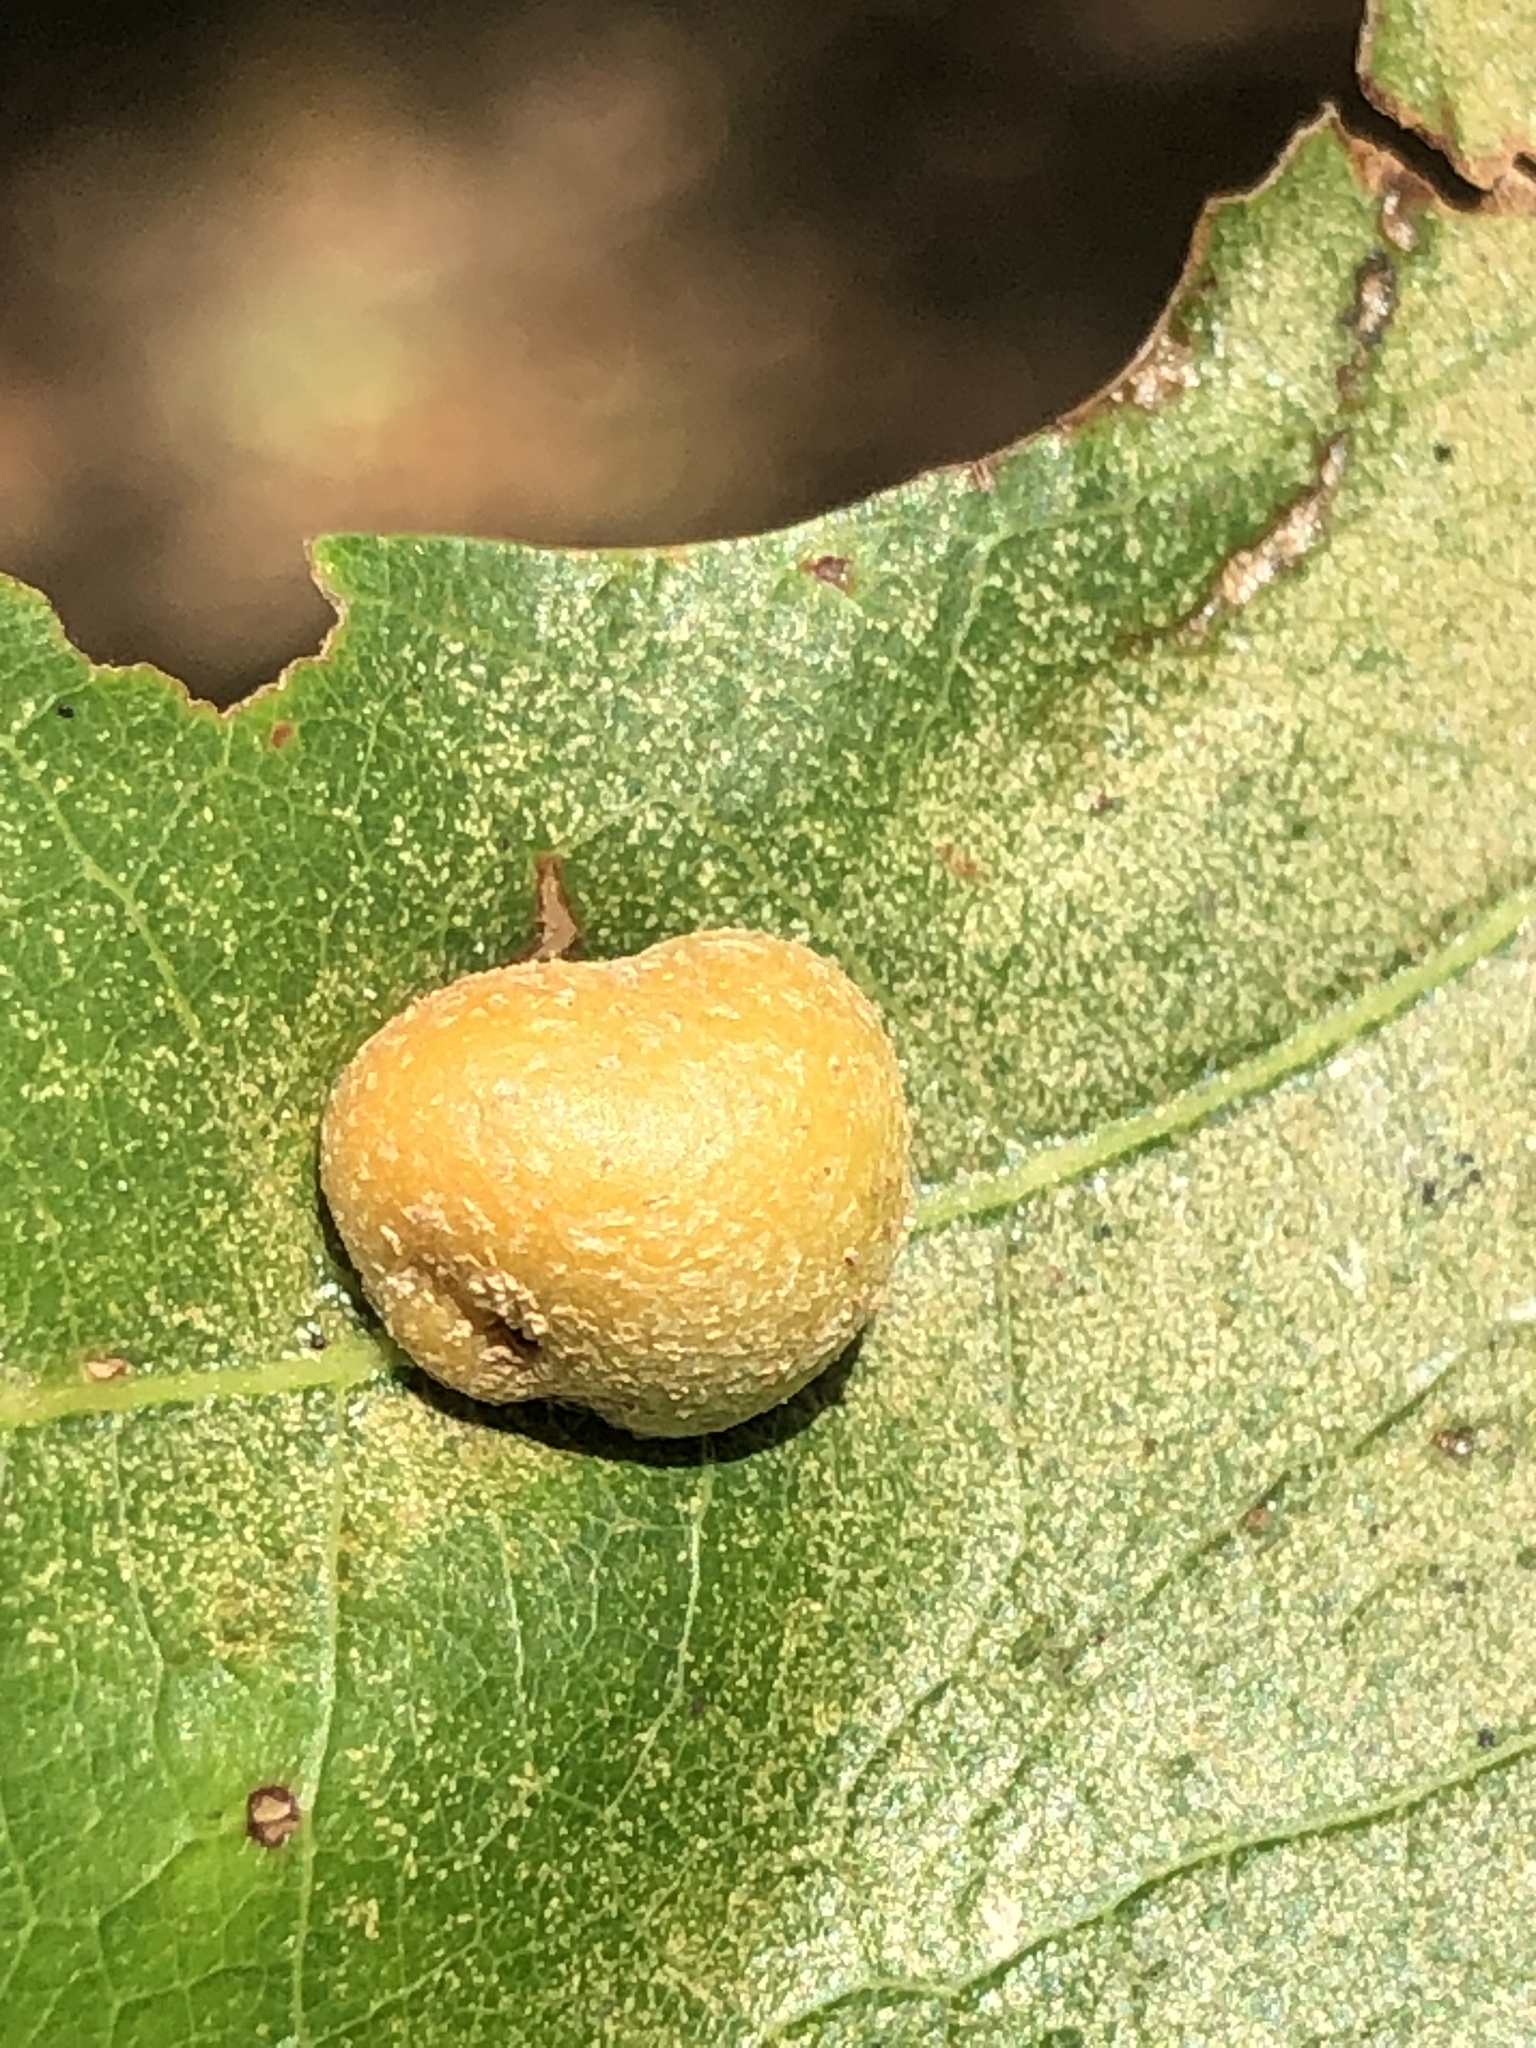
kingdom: Animalia
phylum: Arthropoda
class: Insecta
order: Diptera
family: Cecidomyiidae
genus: Polystepha
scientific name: Polystepha pilulae
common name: Oak leaf gall midge
